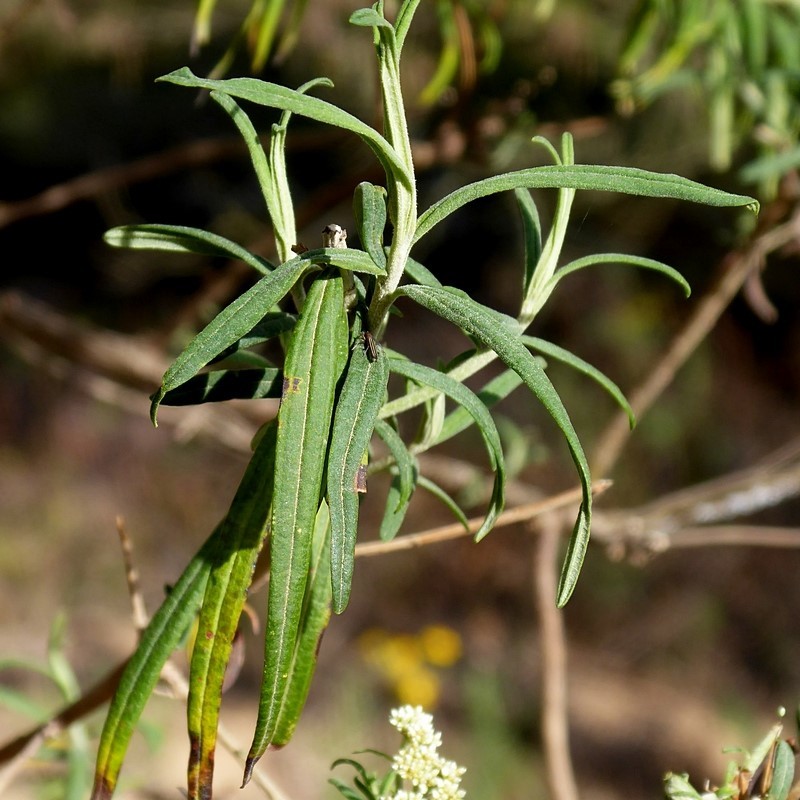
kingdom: Plantae
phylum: Tracheophyta
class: Magnoliopsida
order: Asterales
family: Asteraceae
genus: Cassinia
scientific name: Cassinia trinerva
